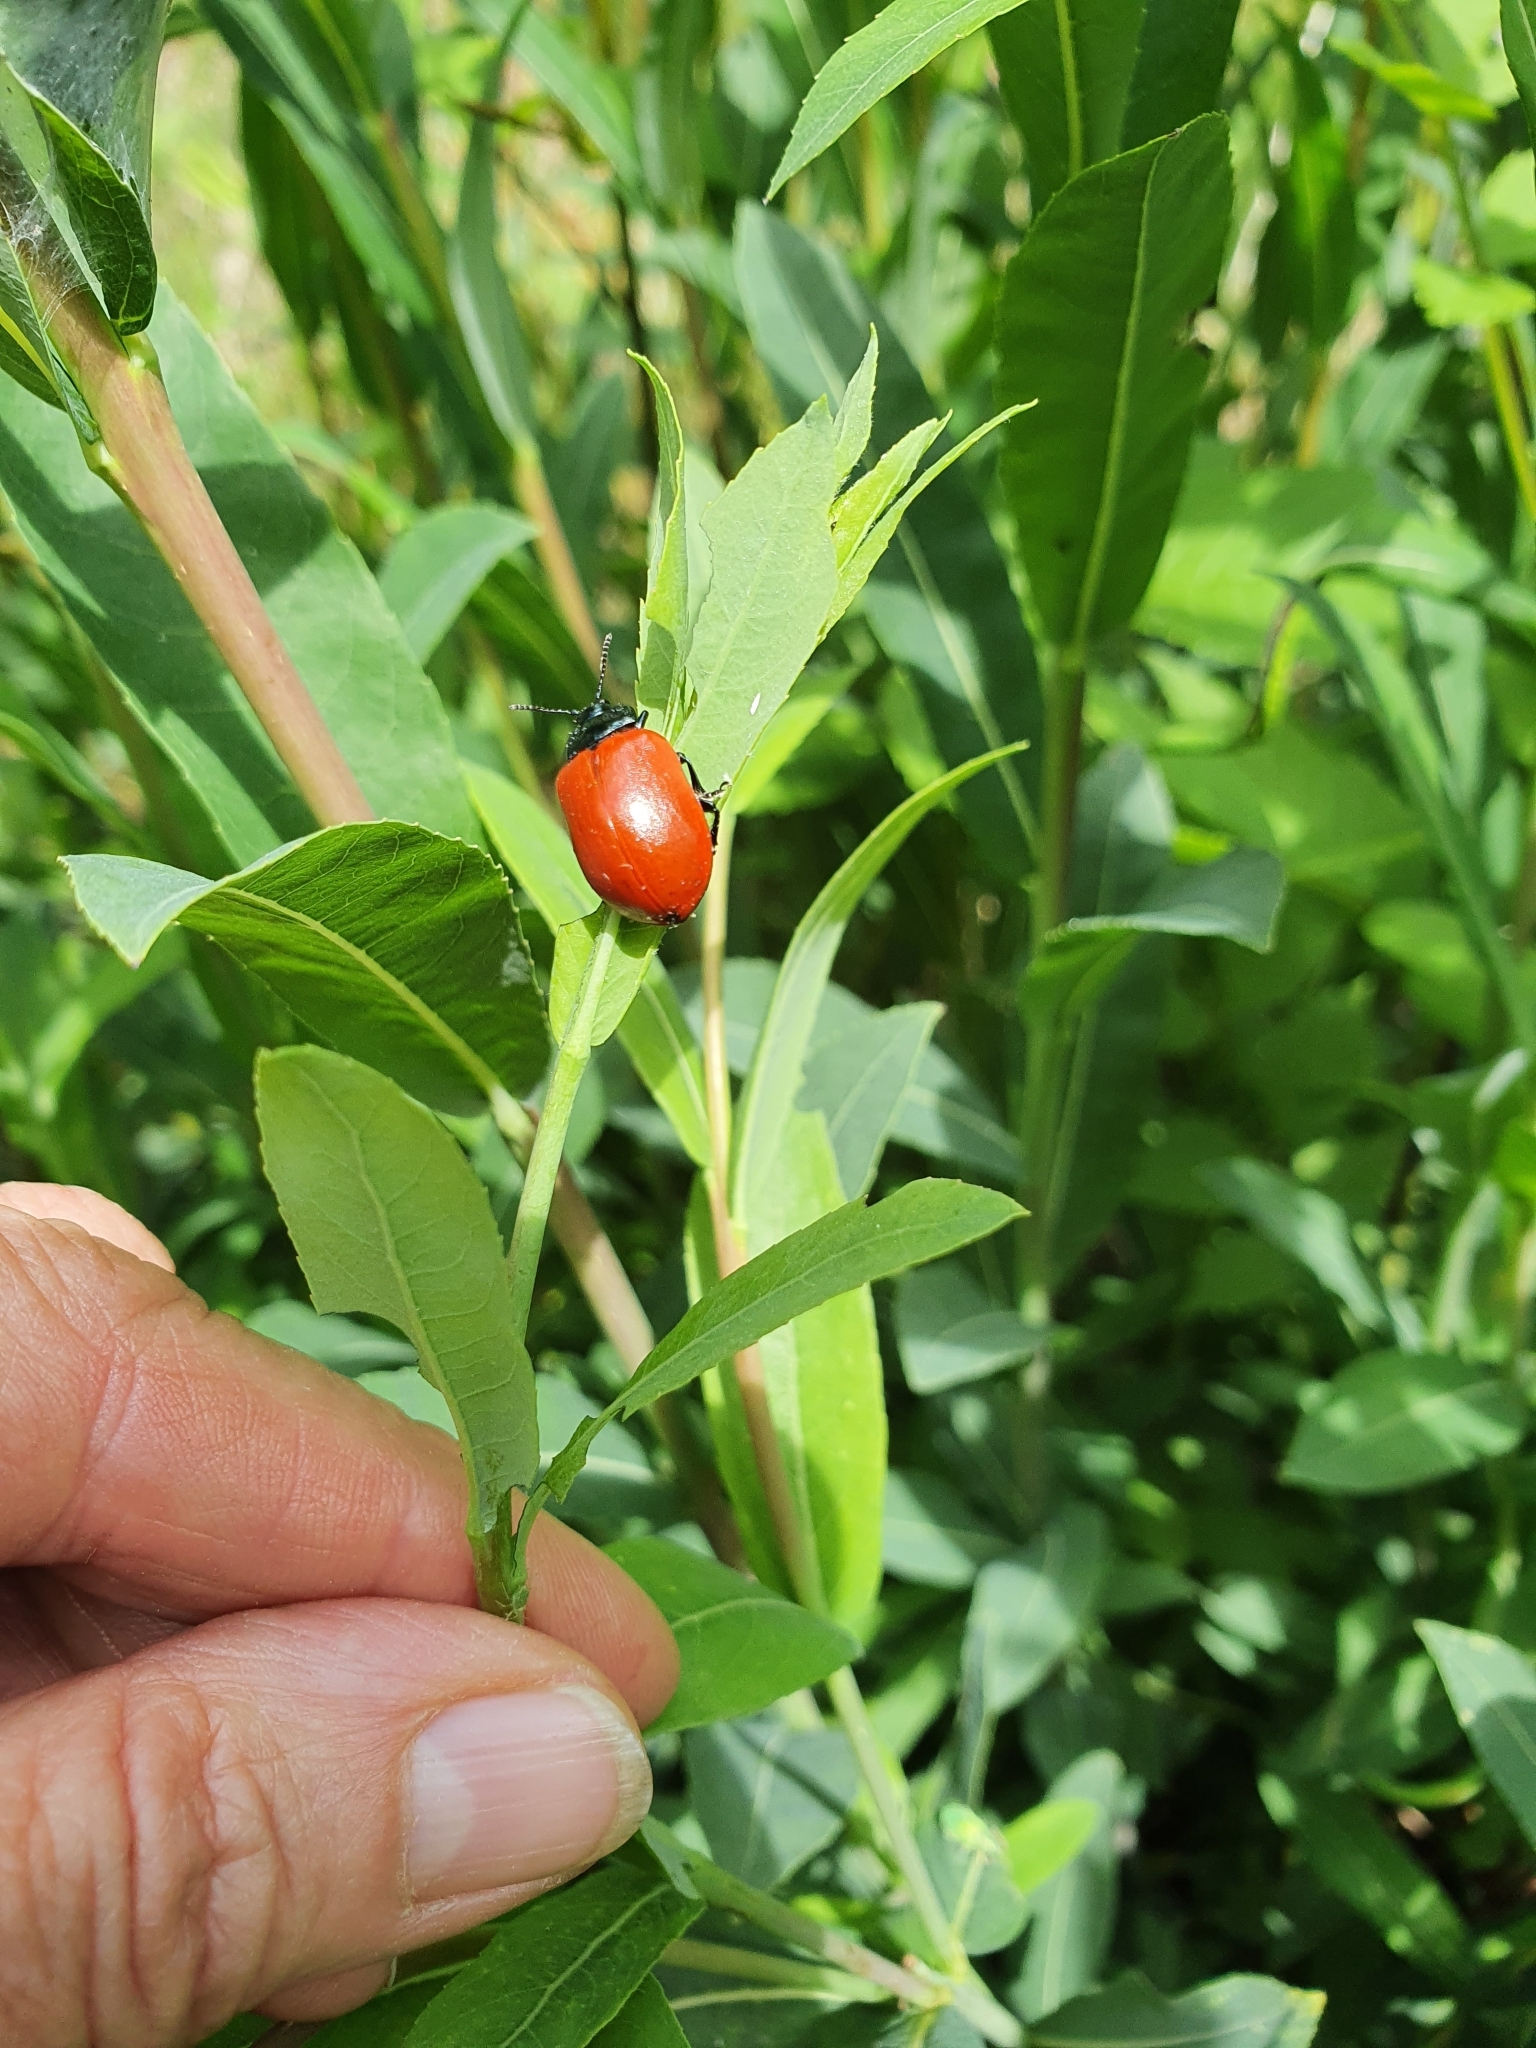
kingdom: Animalia
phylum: Arthropoda
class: Insecta
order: Coleoptera
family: Chrysomelidae
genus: Chrysomela
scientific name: Chrysomela populi
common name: Red poplar leaf beetle
